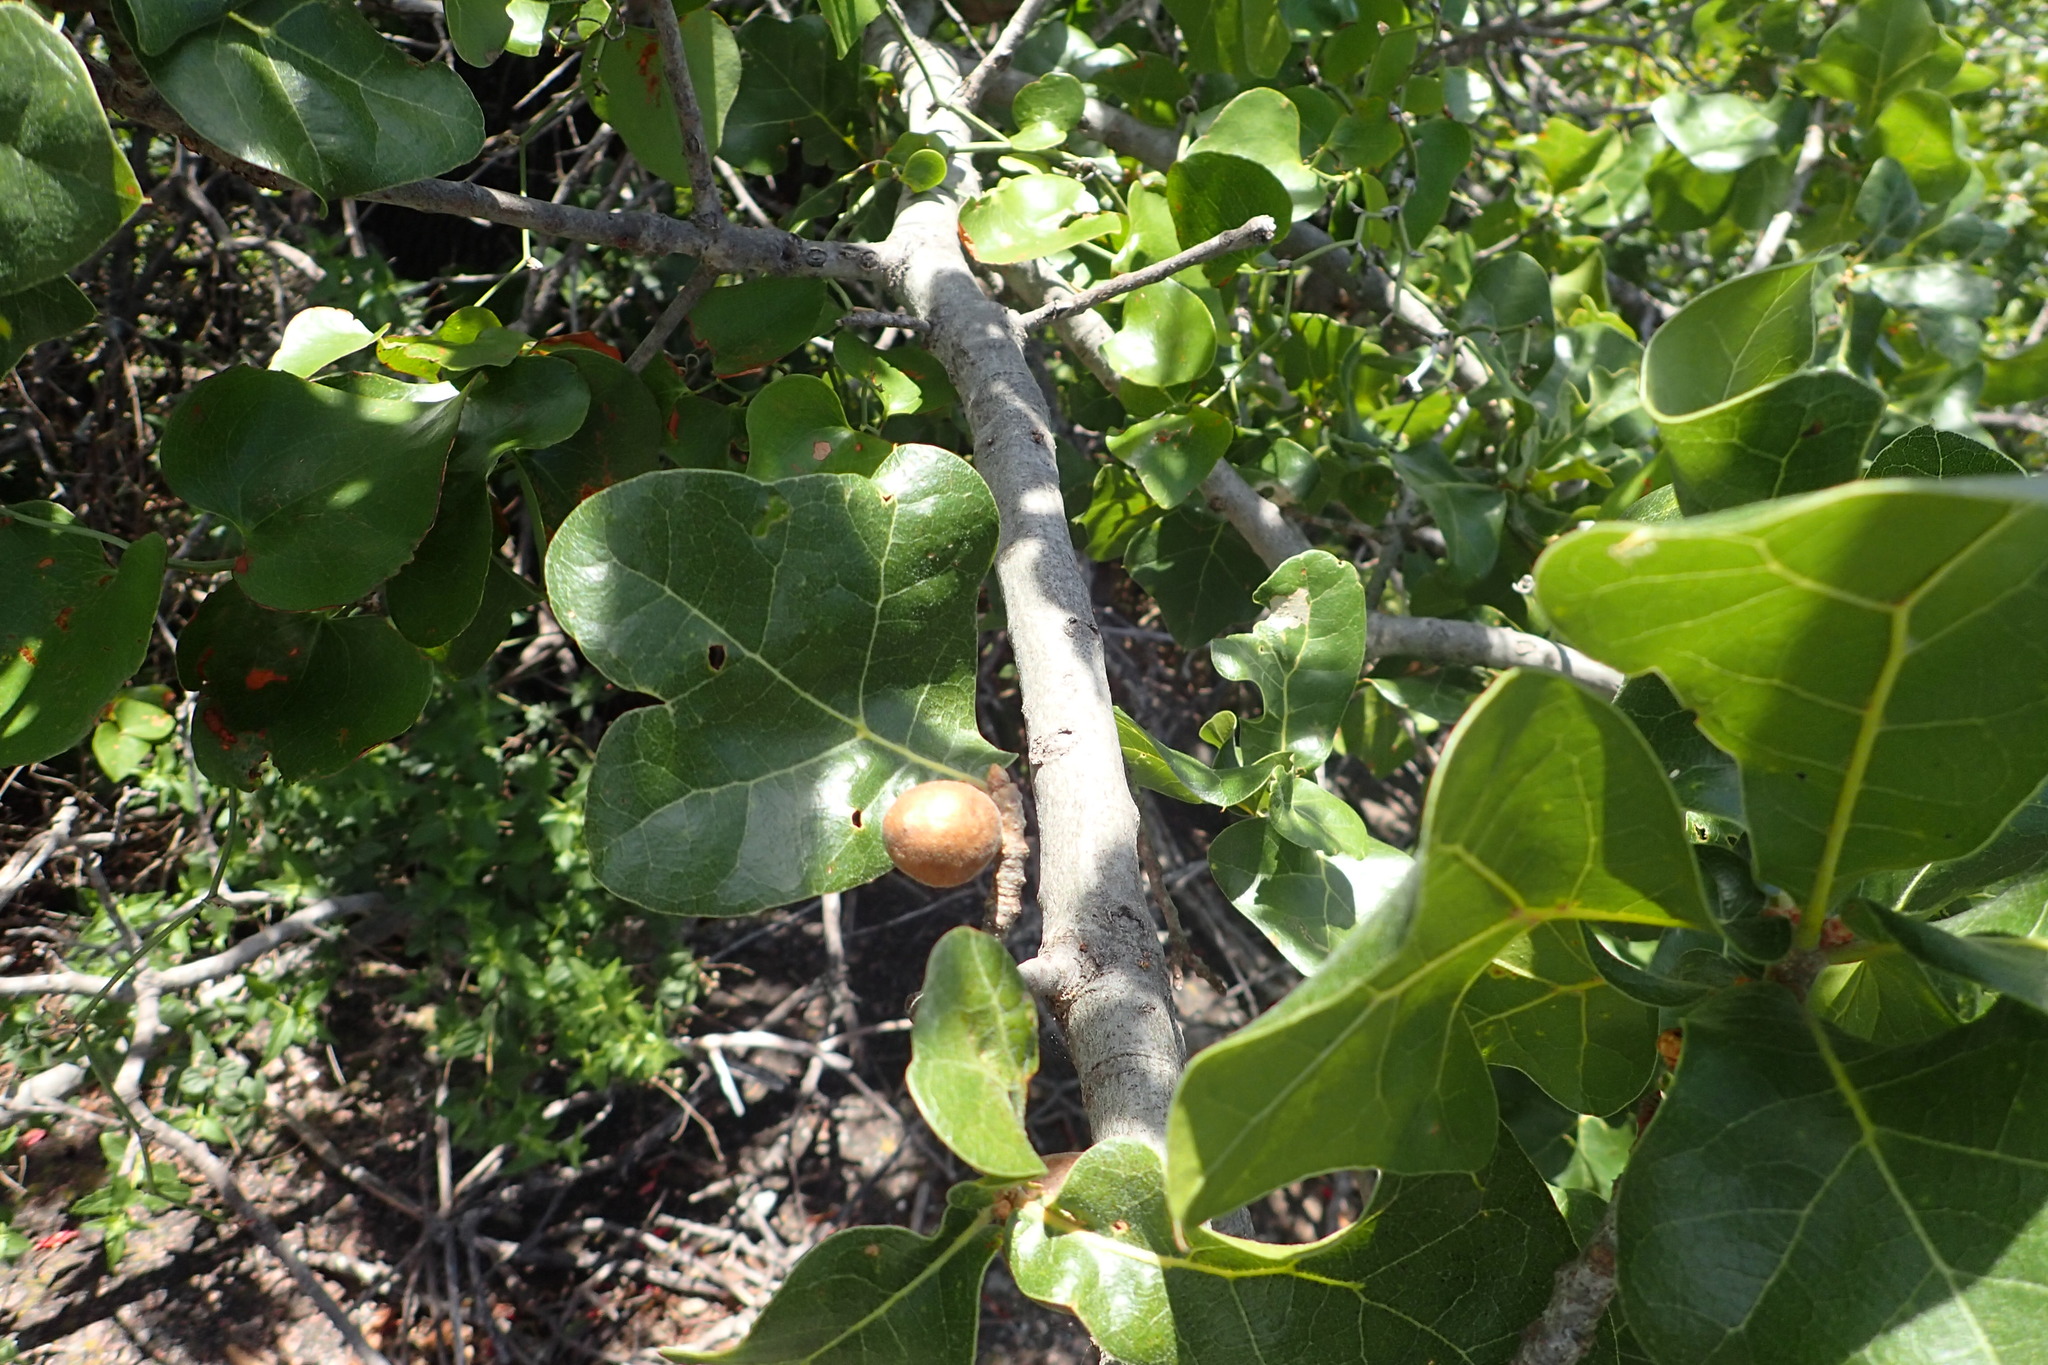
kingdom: Plantae
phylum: Tracheophyta
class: Magnoliopsida
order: Fagales
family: Fagaceae
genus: Quercus
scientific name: Quercus marilandica
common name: Blackjack oak
